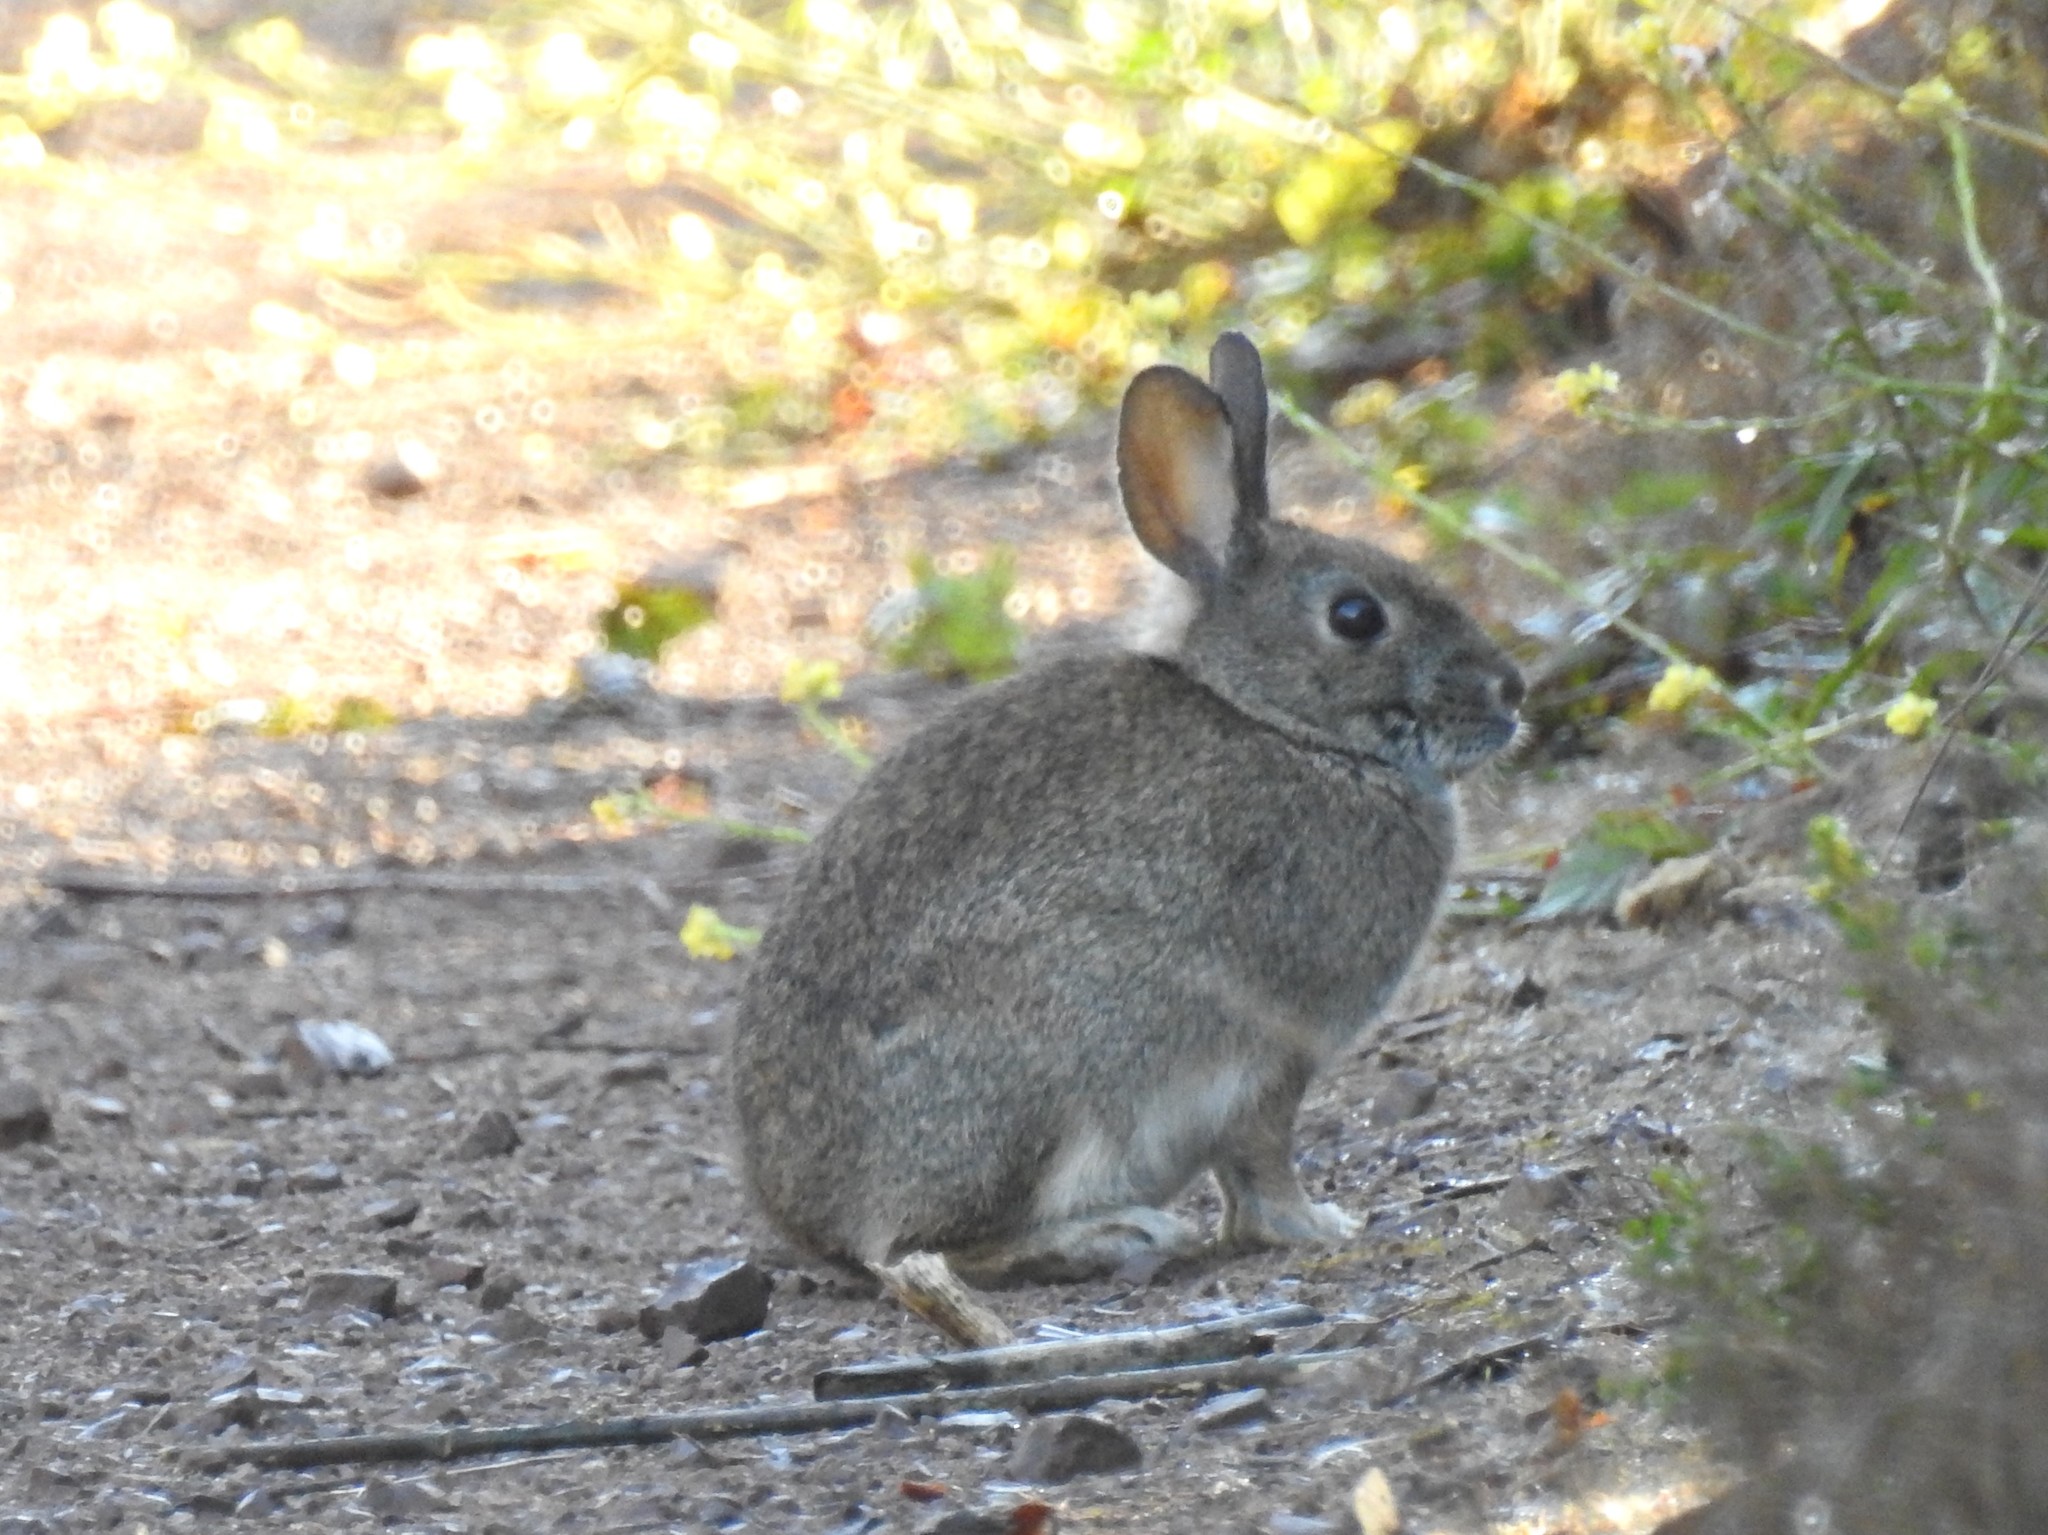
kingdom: Animalia
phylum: Chordata
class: Mammalia
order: Lagomorpha
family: Leporidae
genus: Sylvilagus
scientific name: Sylvilagus bachmani
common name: Brush rabbit
